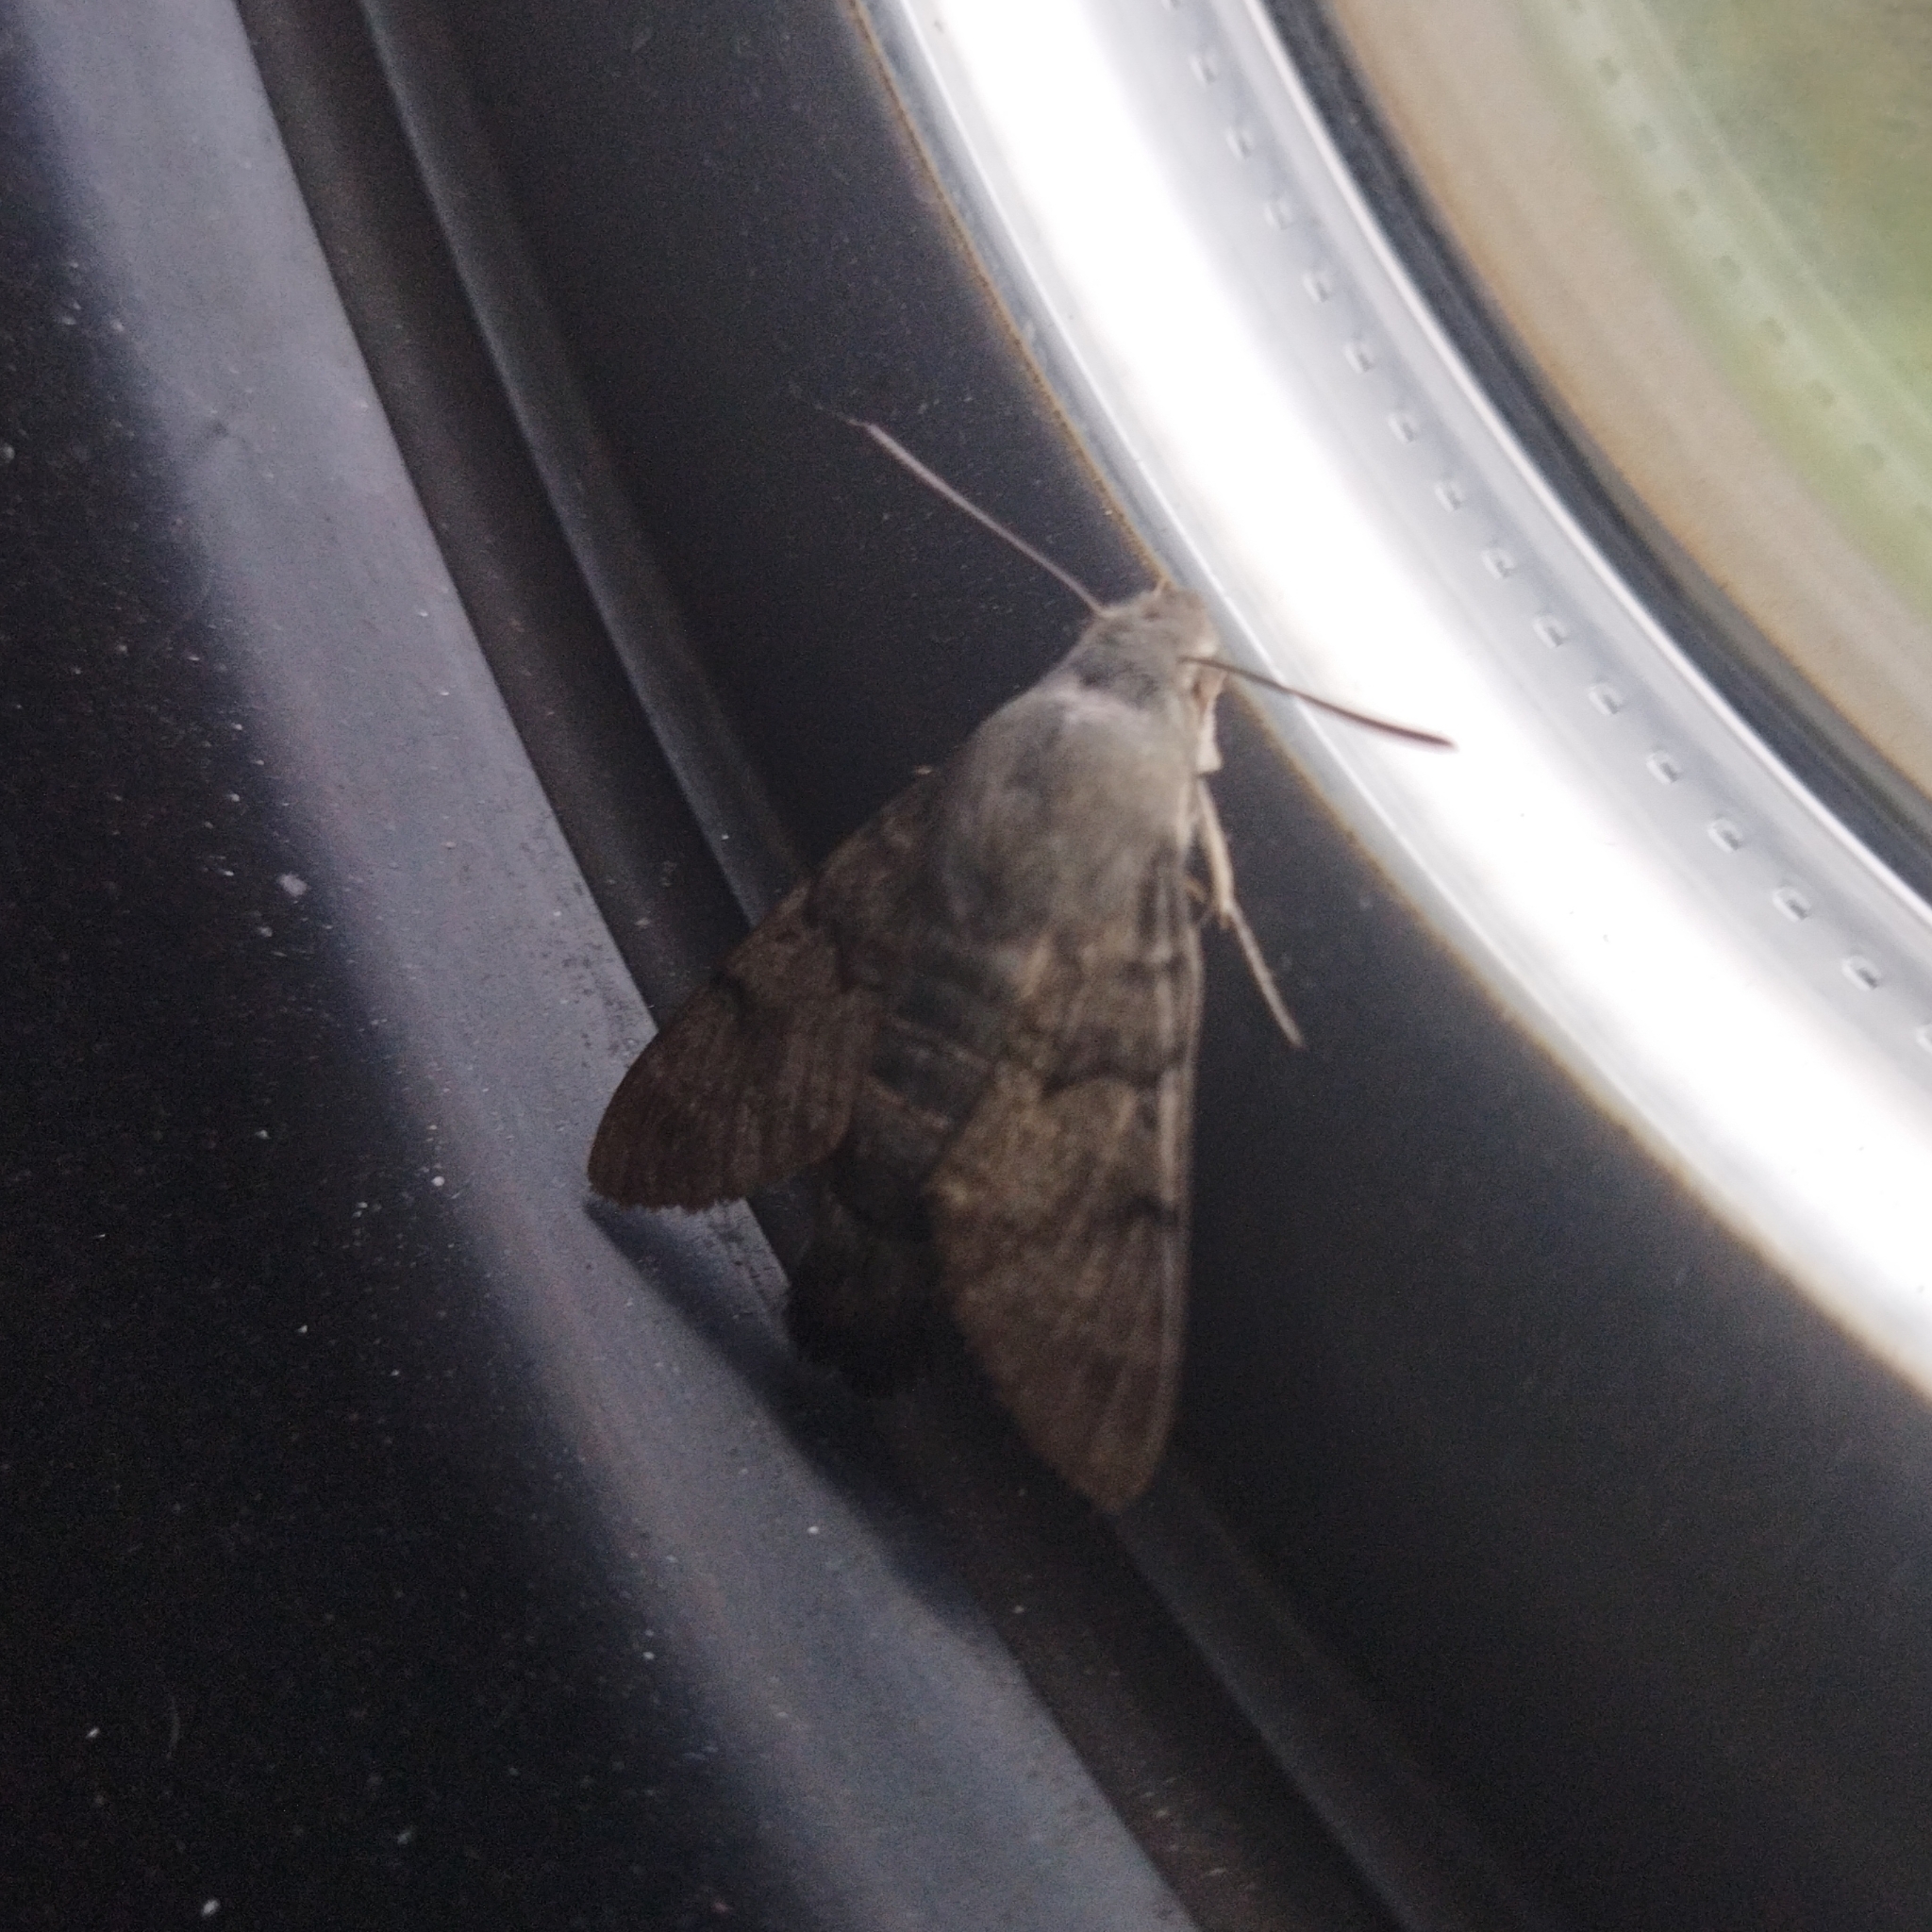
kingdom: Animalia
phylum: Arthropoda
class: Insecta
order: Lepidoptera
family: Sphingidae
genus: Macroglossum
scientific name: Macroglossum stellatarum
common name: Humming-bird hawk-moth
